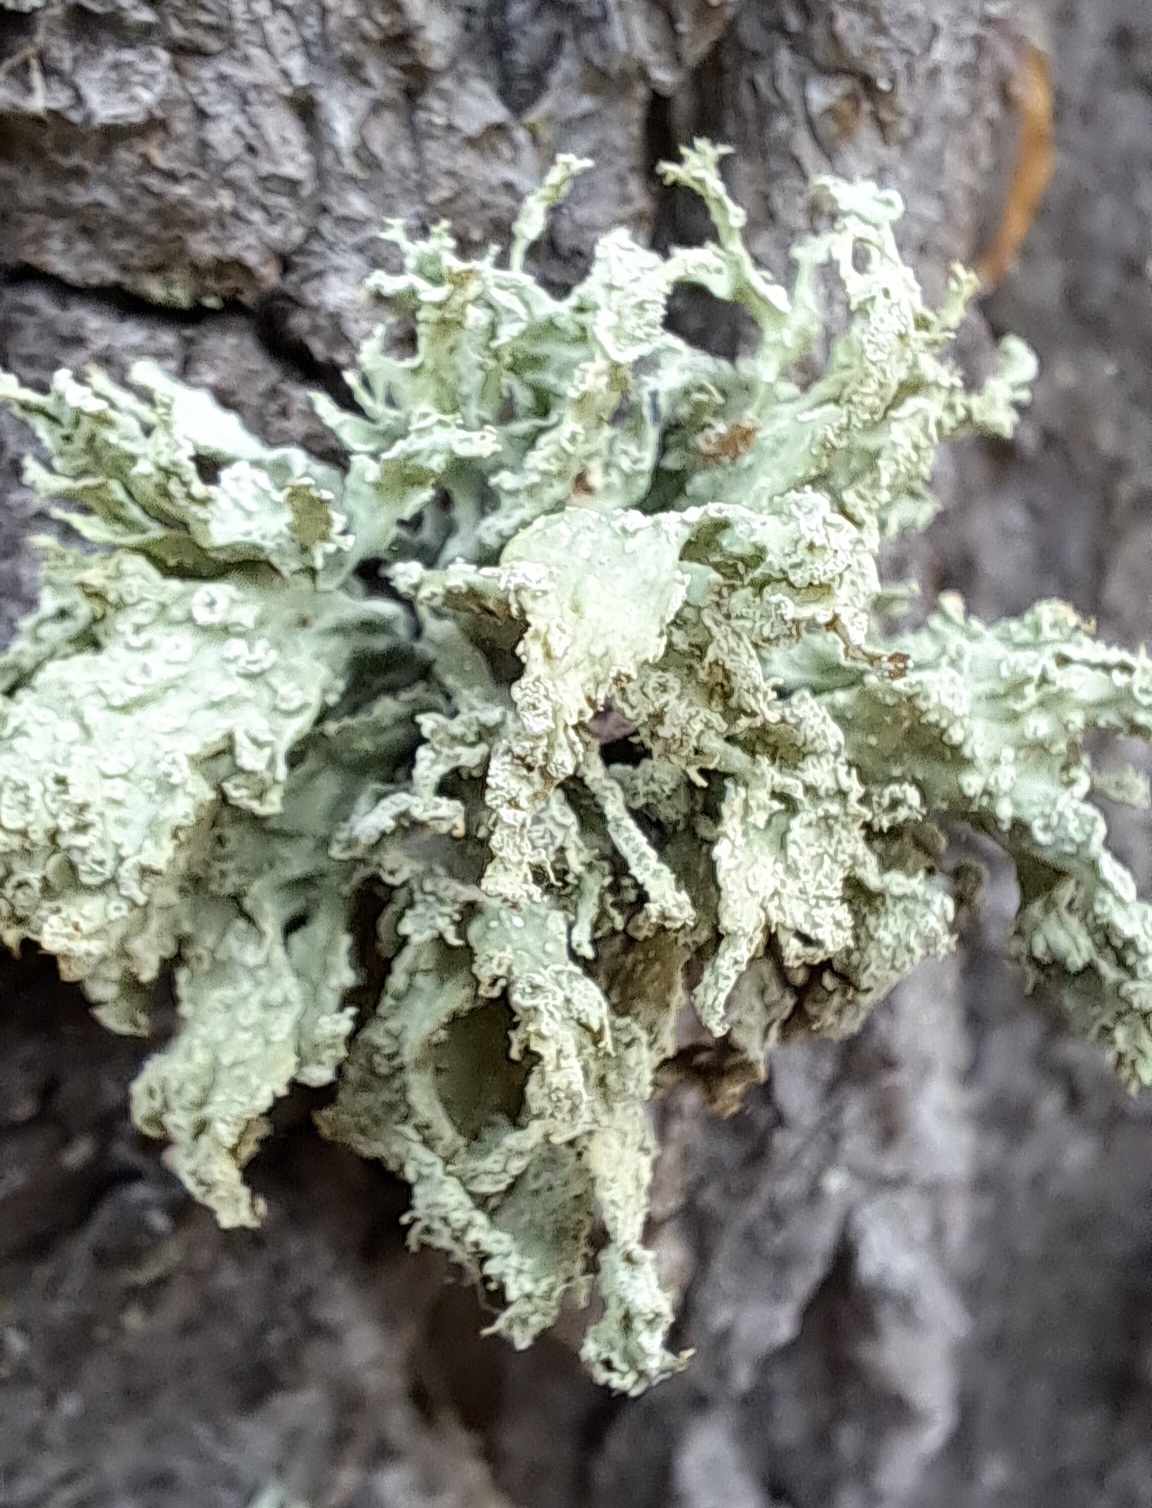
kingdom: Fungi
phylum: Ascomycota
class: Lecanoromycetes
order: Lecanorales
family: Ramalinaceae
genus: Ramalina
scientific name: Ramalina farinacea
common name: Farinose cartilage lichen
